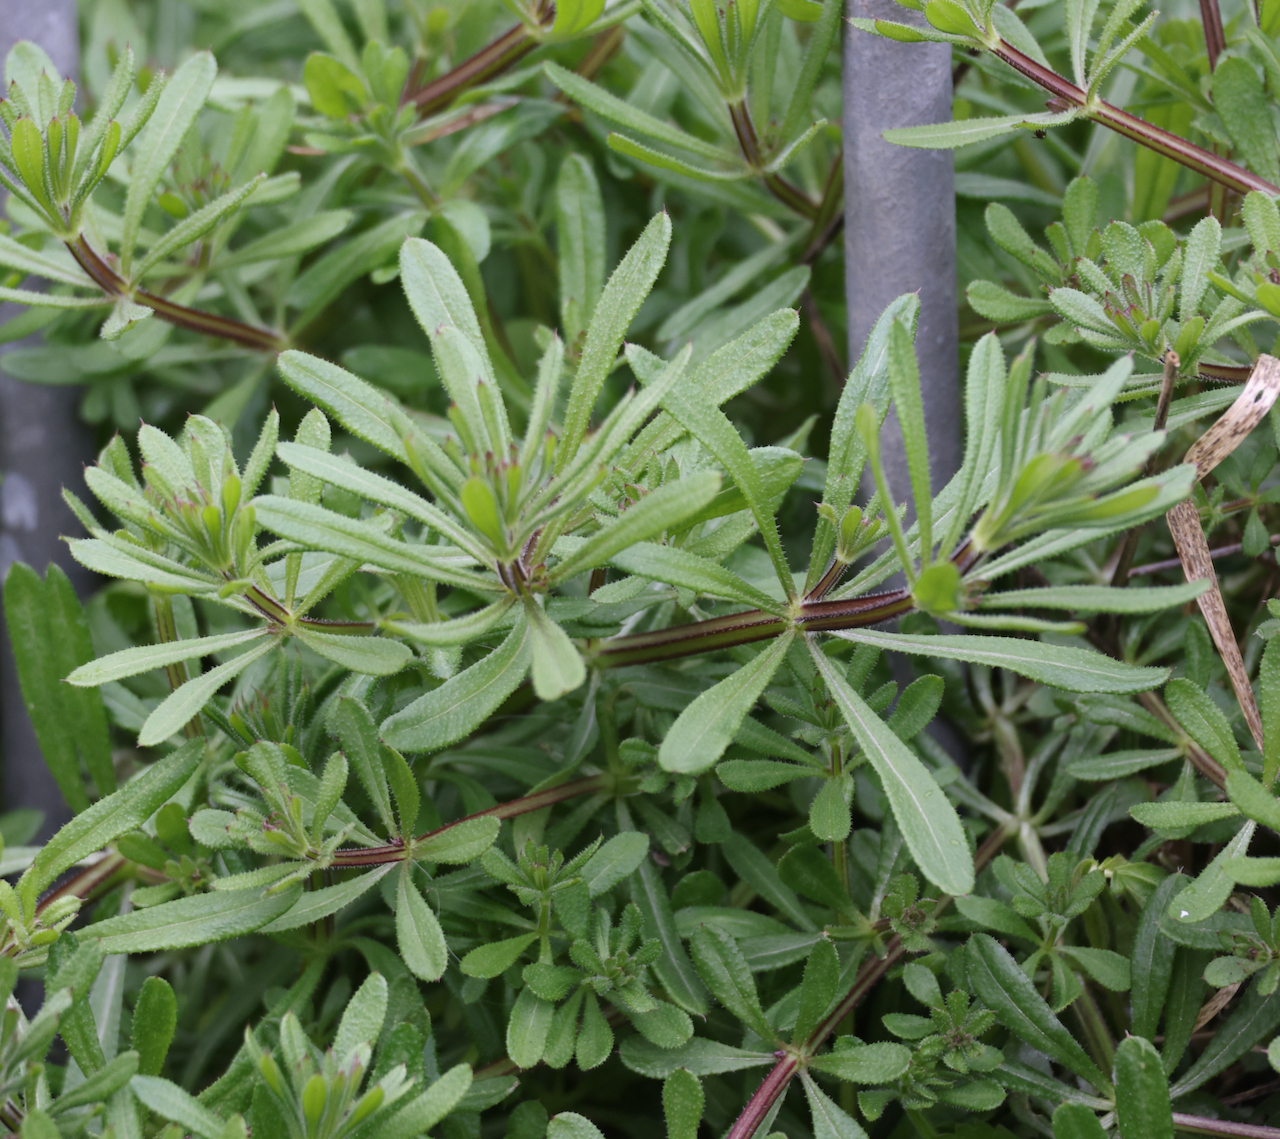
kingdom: Plantae
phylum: Tracheophyta
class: Magnoliopsida
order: Gentianales
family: Rubiaceae
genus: Galium
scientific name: Galium aparine
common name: Cleavers
